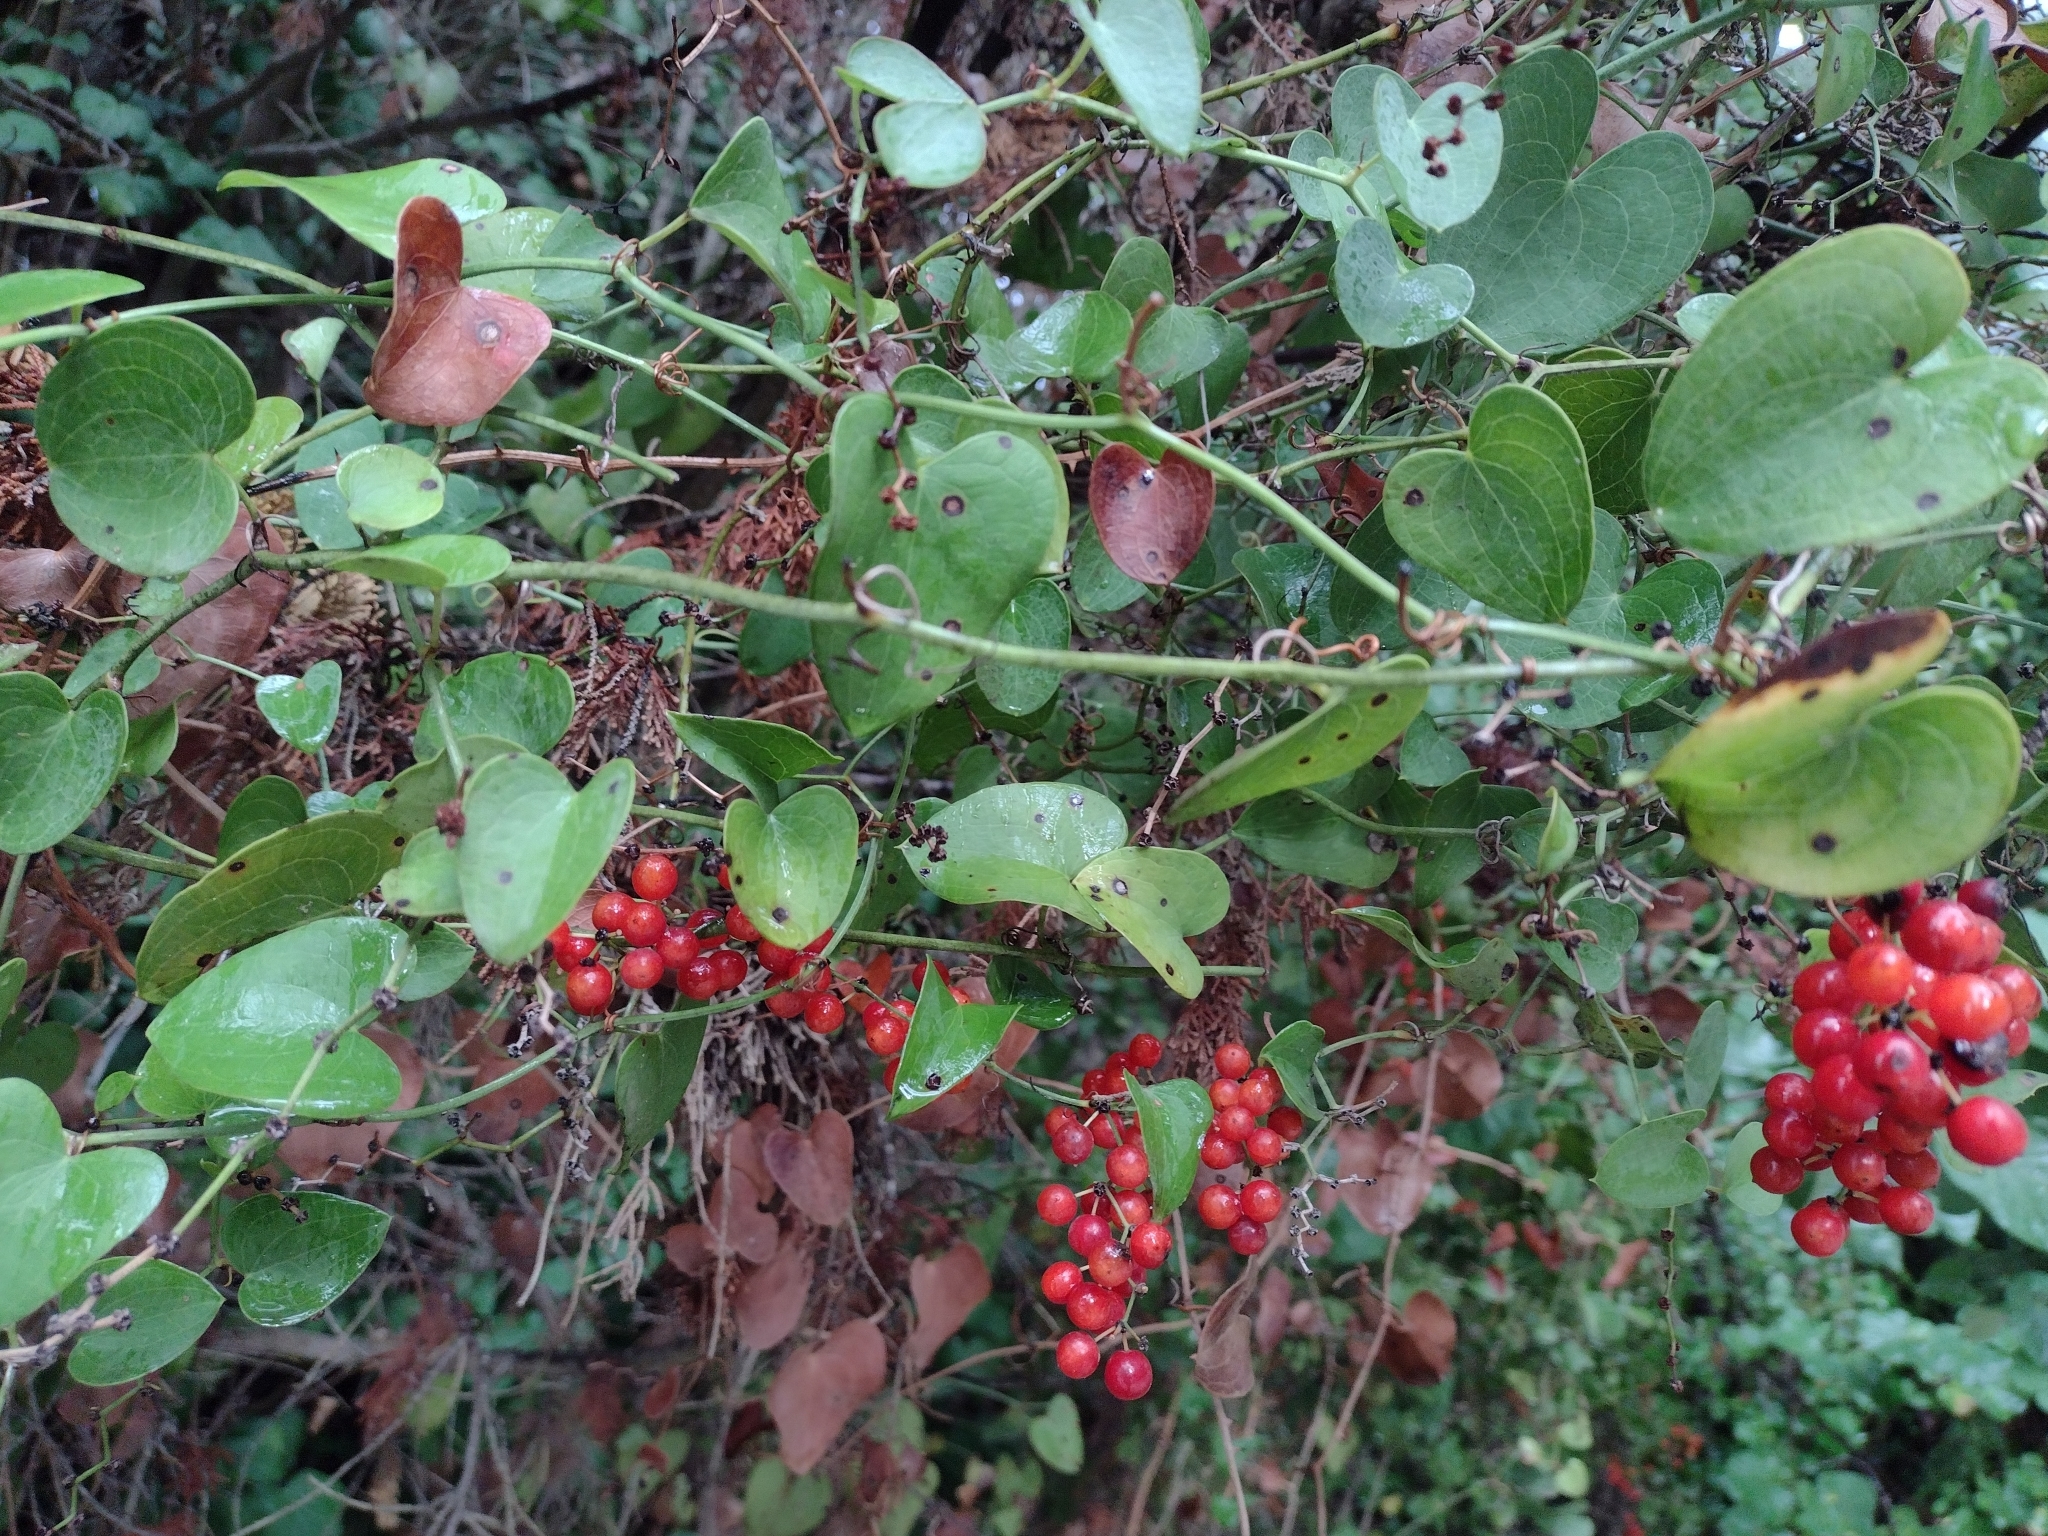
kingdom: Plantae
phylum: Tracheophyta
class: Liliopsida
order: Liliales
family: Smilacaceae
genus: Smilax
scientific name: Smilax aspera
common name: Common smilax
